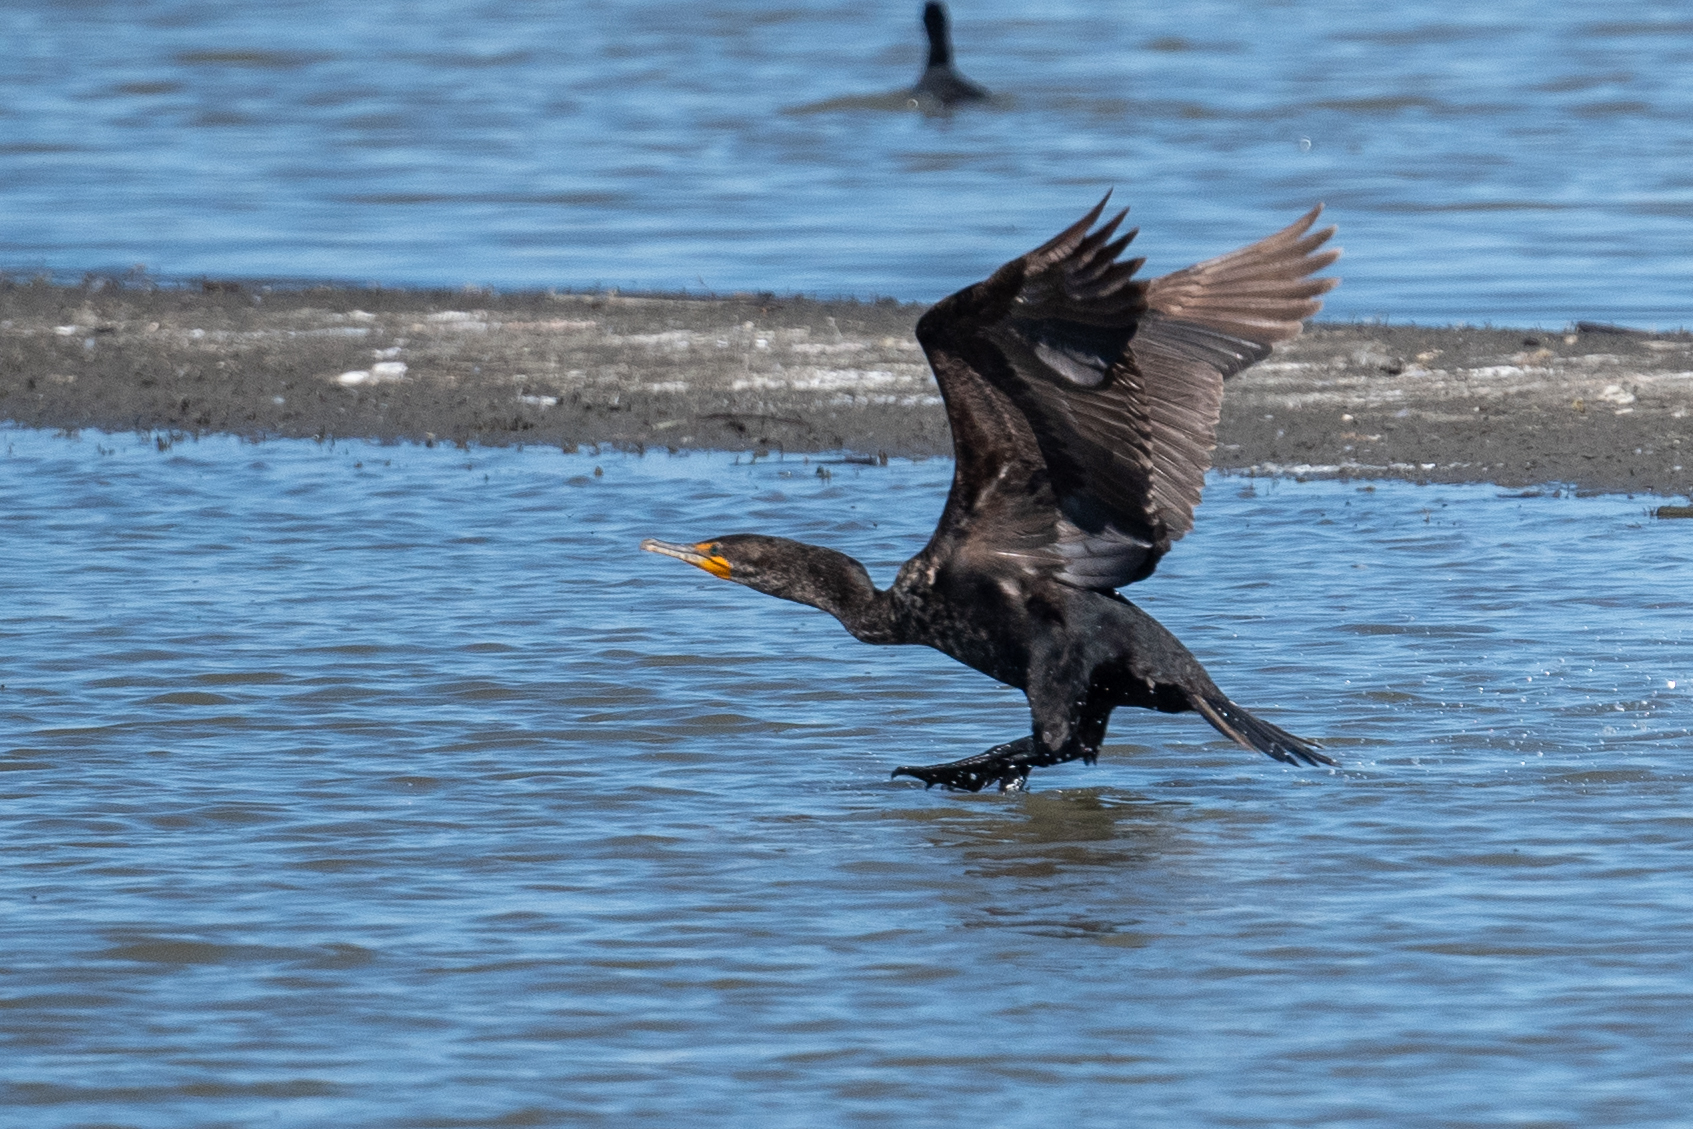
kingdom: Animalia
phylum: Chordata
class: Aves
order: Suliformes
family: Phalacrocoracidae
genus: Phalacrocorax
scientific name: Phalacrocorax auritus
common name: Double-crested cormorant
